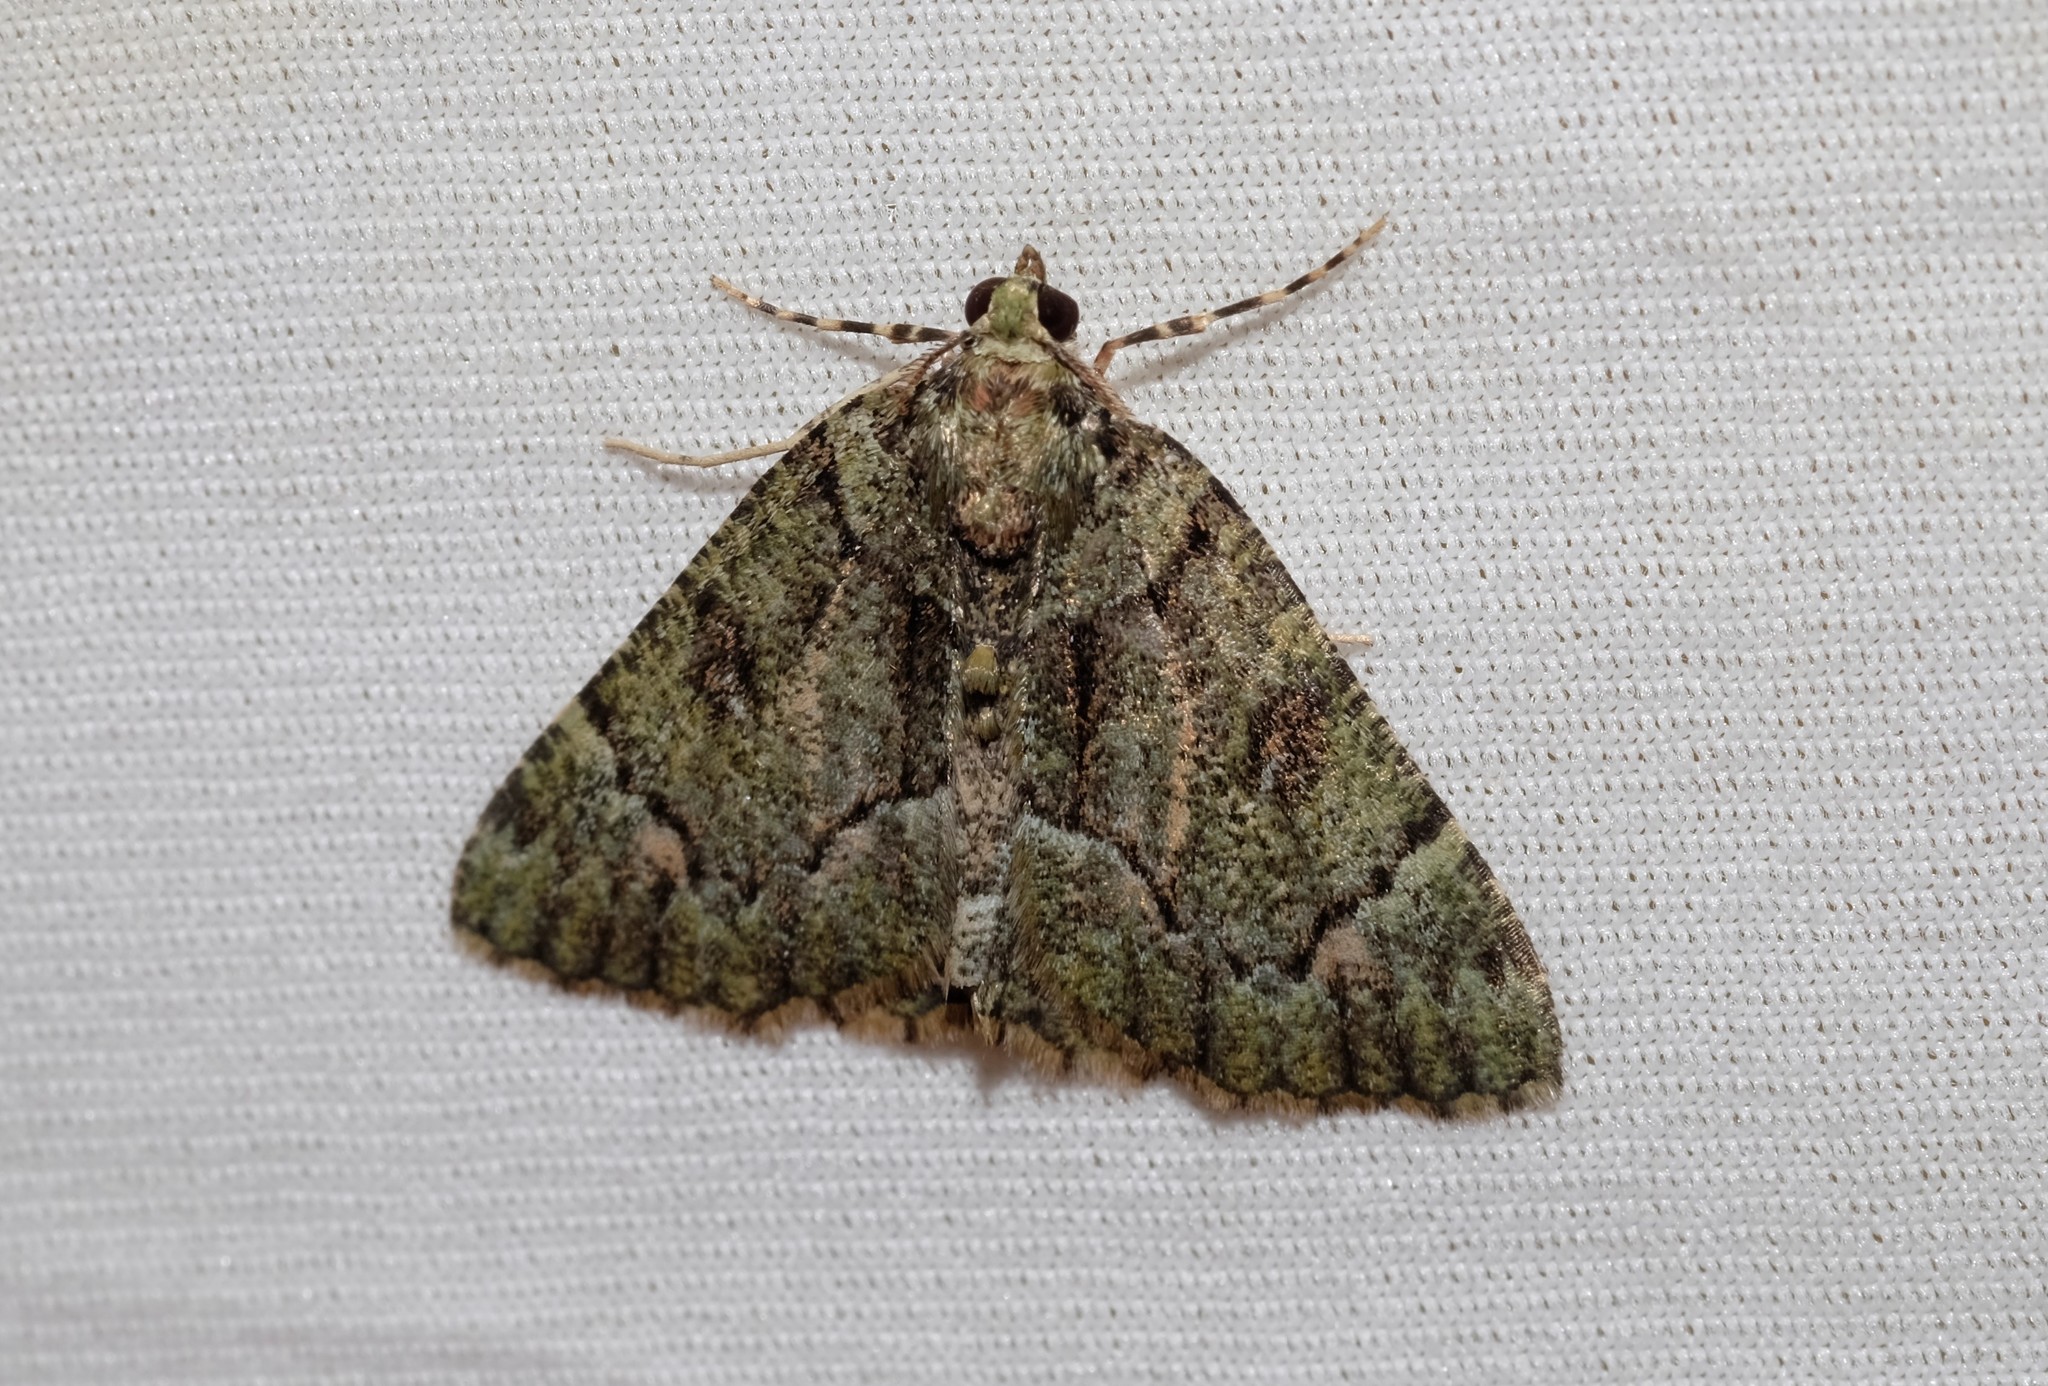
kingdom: Animalia
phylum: Arthropoda
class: Insecta
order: Lepidoptera
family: Geometridae
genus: Aeolochroma
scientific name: Aeolochroma metarhodata
